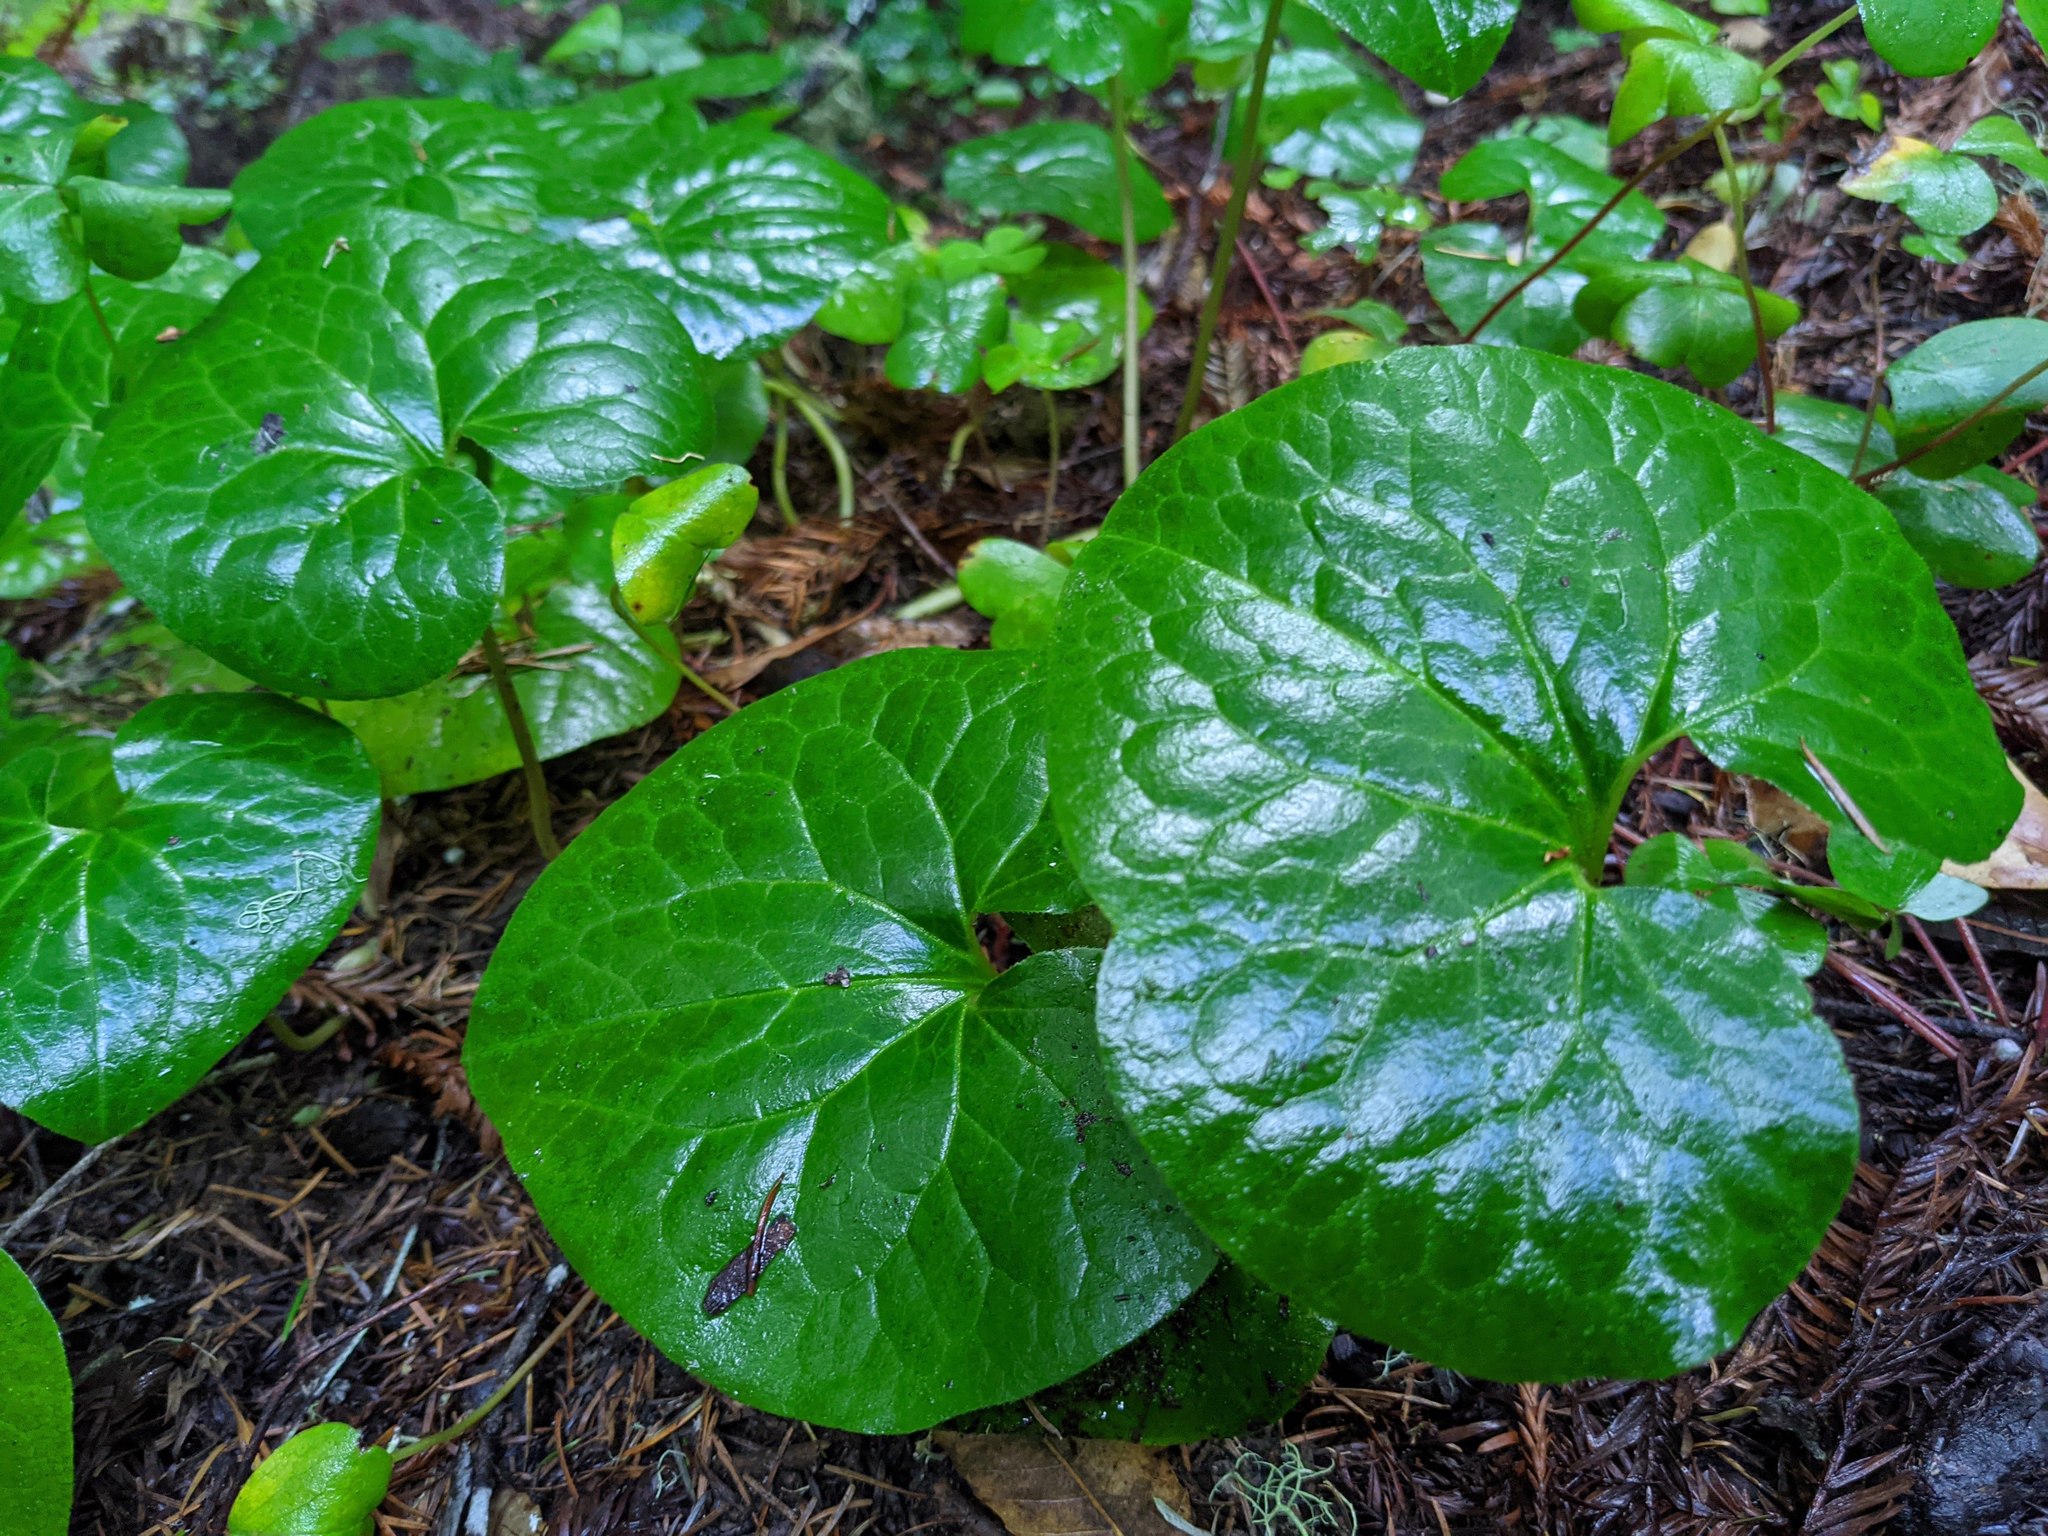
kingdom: Plantae
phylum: Tracheophyta
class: Magnoliopsida
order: Piperales
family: Aristolochiaceae
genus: Asarum
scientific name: Asarum caudatum
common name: Wild ginger
